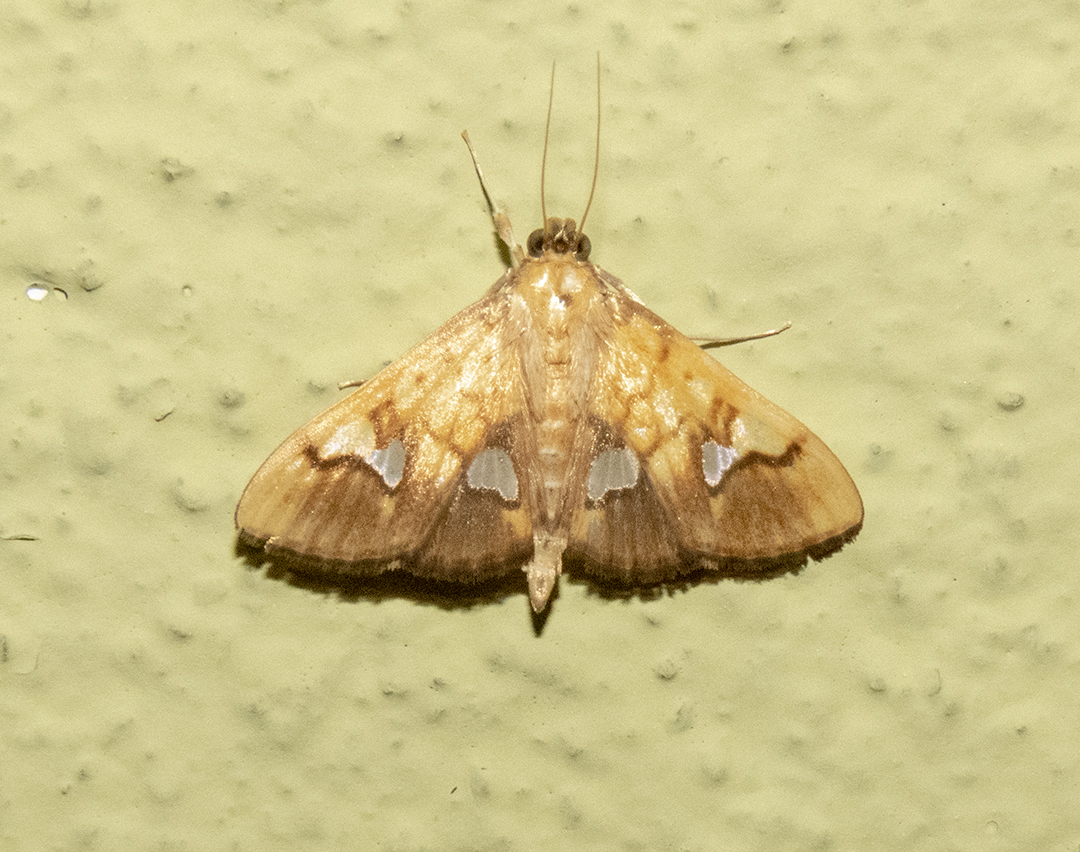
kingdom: Animalia
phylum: Arthropoda
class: Insecta
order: Lepidoptera
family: Crambidae
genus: Nosophora
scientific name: Nosophora semitritalis
